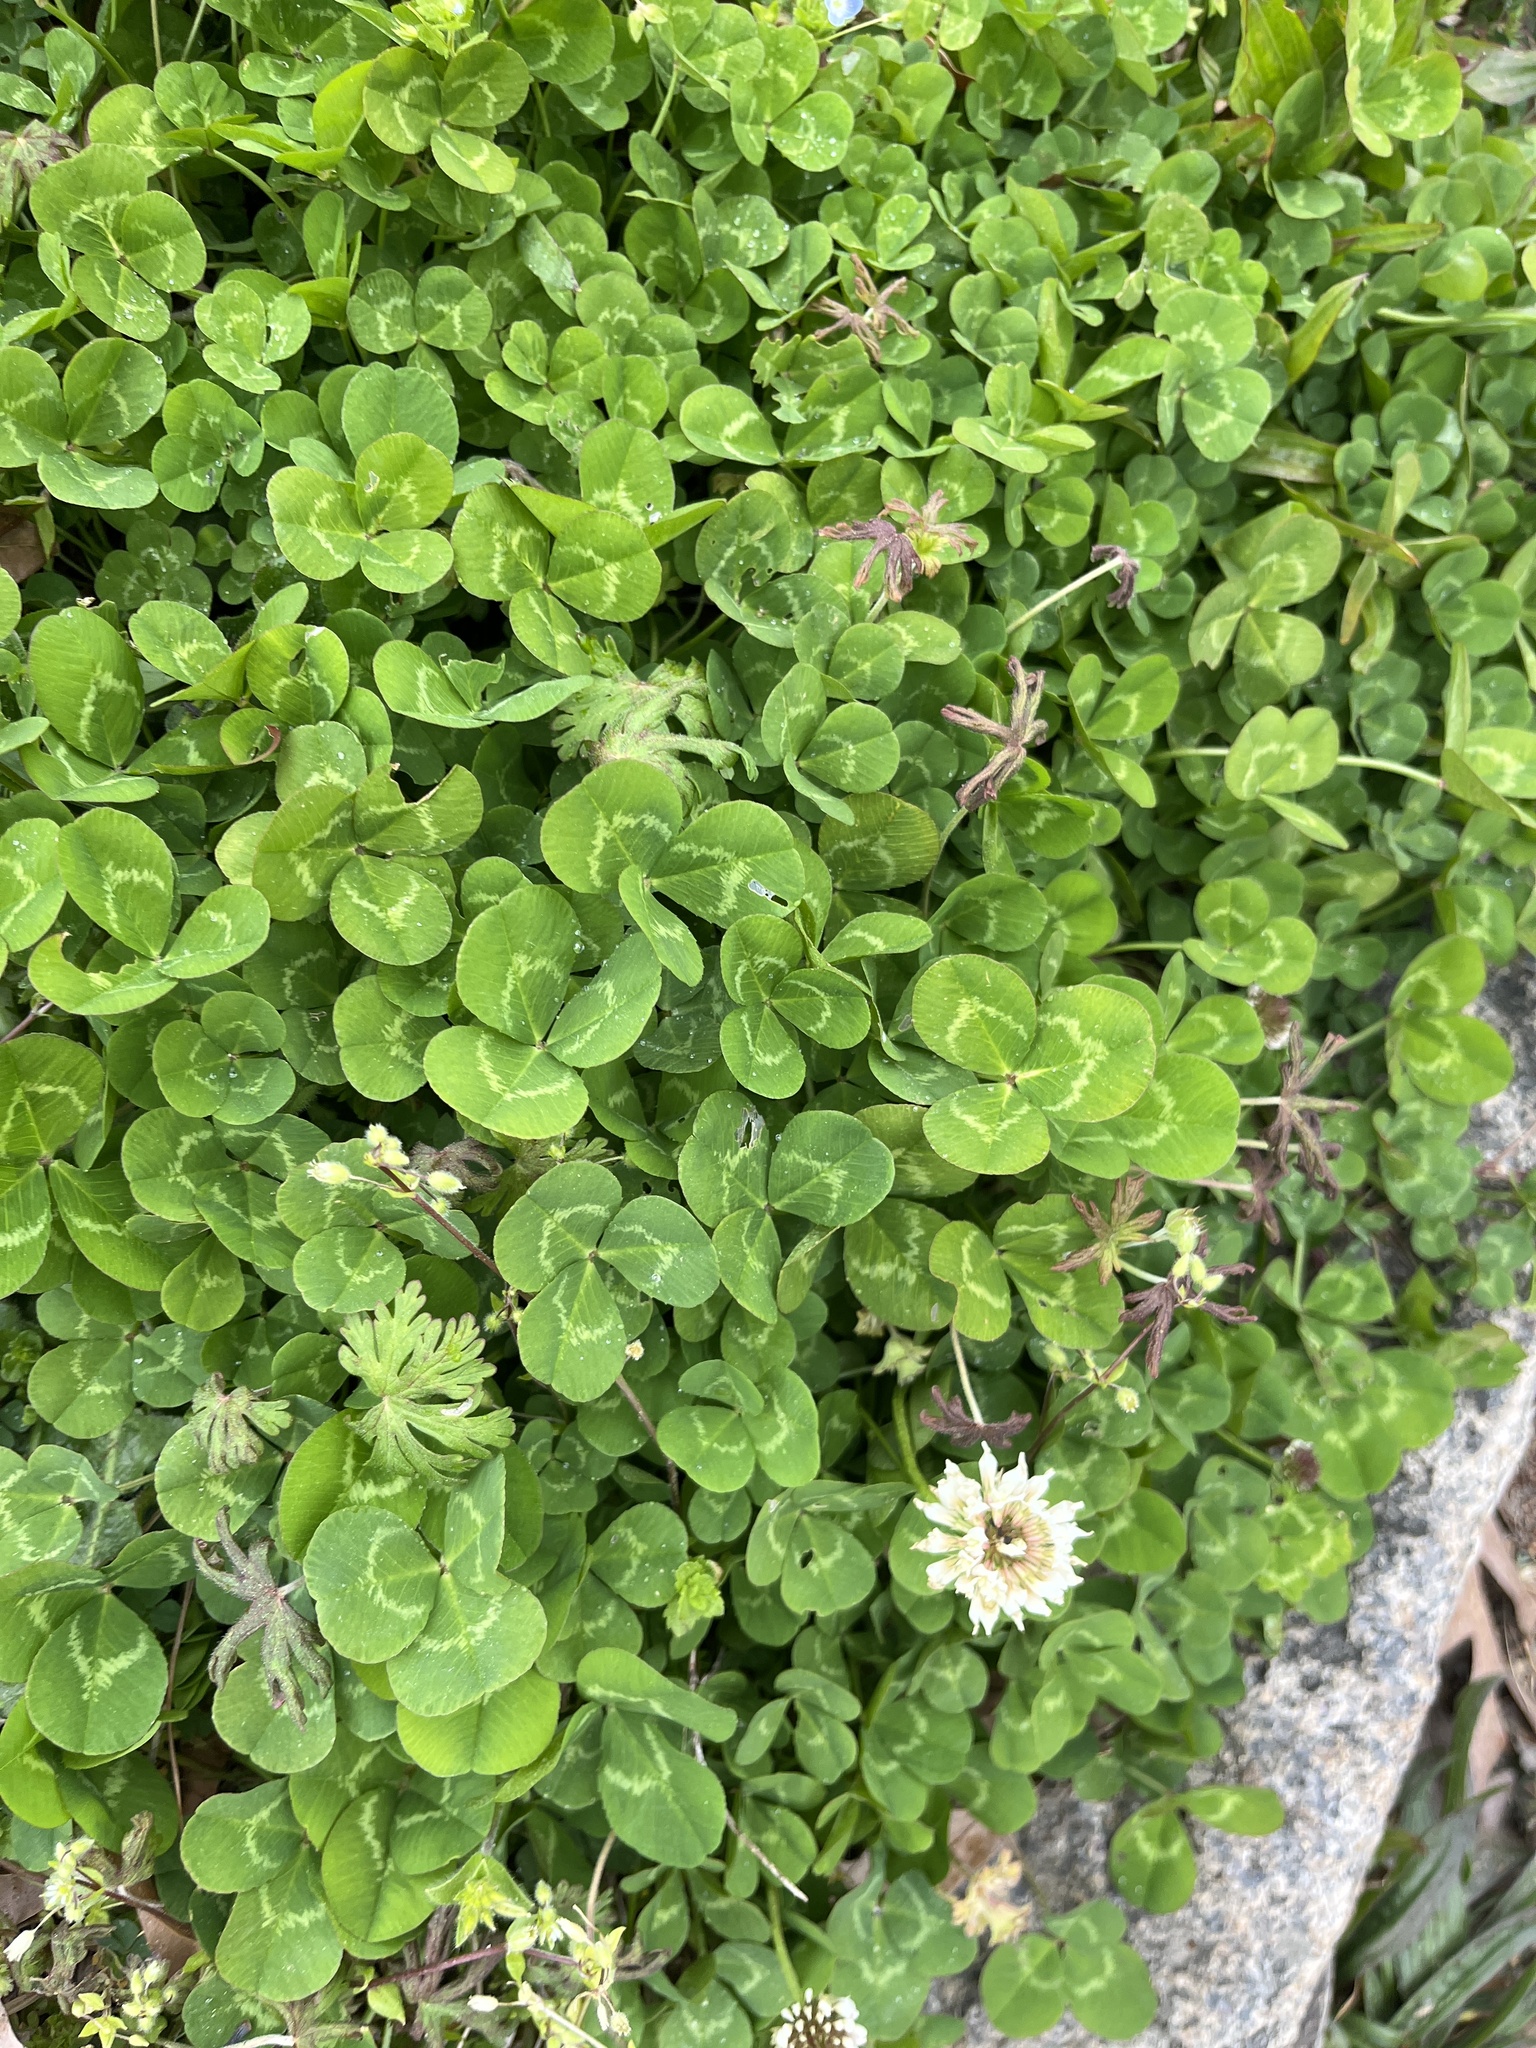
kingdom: Plantae
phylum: Tracheophyta
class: Magnoliopsida
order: Fabales
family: Fabaceae
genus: Trifolium
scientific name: Trifolium repens
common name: White clover
